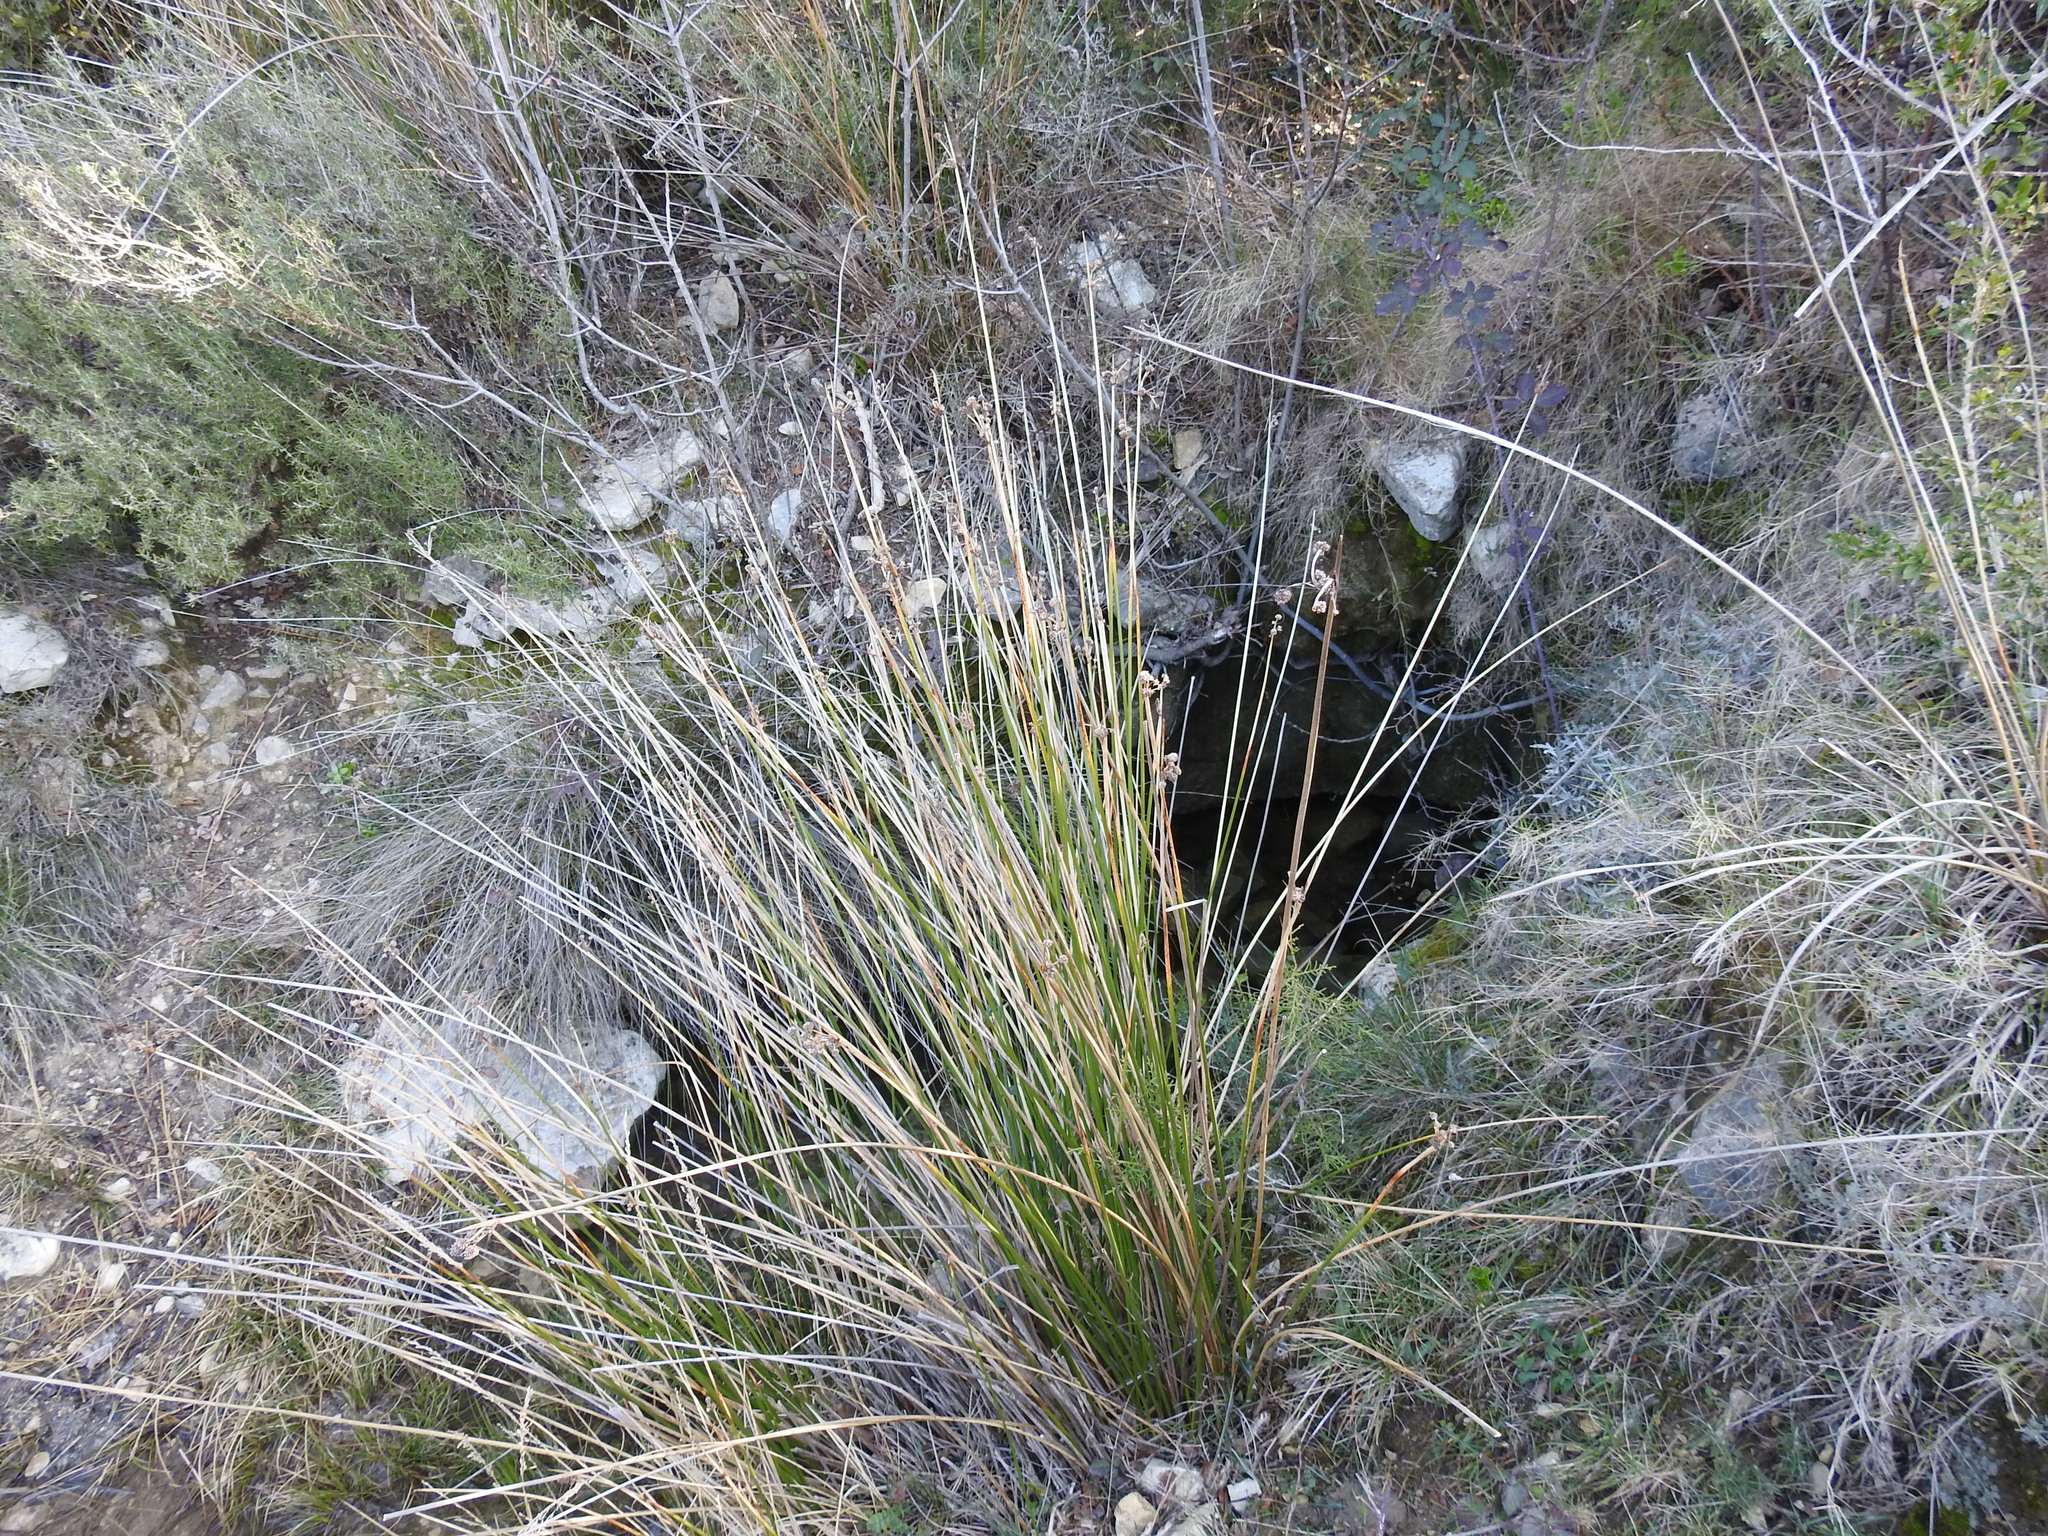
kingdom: Plantae
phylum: Tracheophyta
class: Liliopsida
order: Poales
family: Cyperaceae
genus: Scirpoides
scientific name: Scirpoides holoschoenus
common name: Round-headed club-rush
